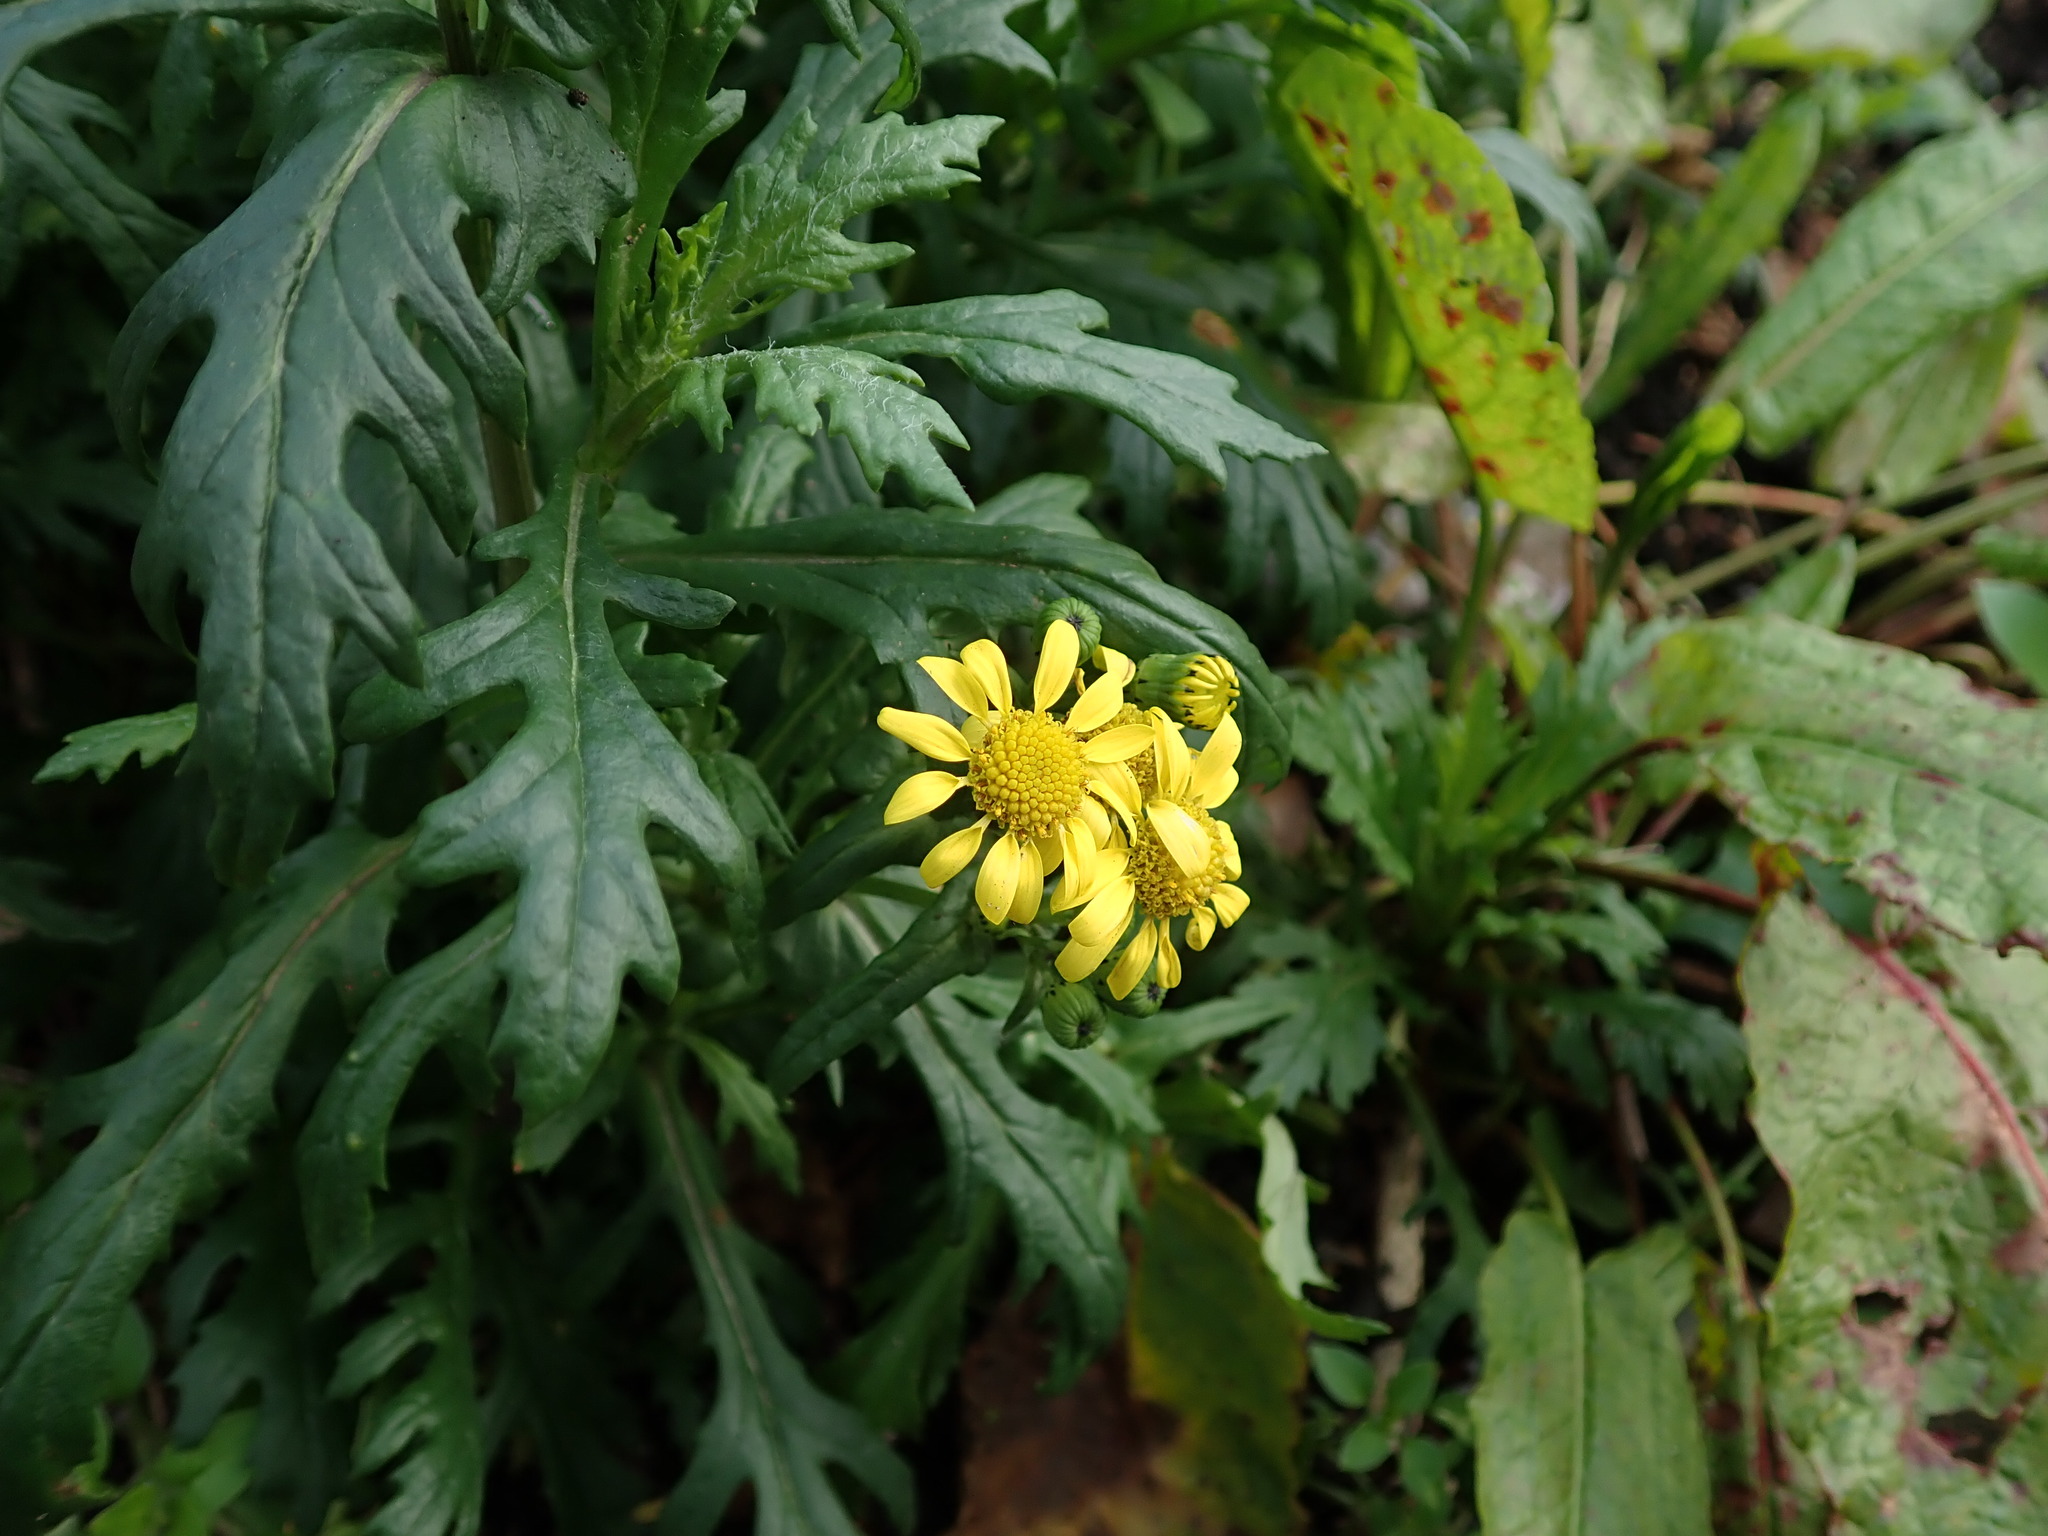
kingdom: Plantae
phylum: Tracheophyta
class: Magnoliopsida
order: Asterales
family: Asteraceae
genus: Senecio
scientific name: Senecio squalidus
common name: Oxford ragwort
